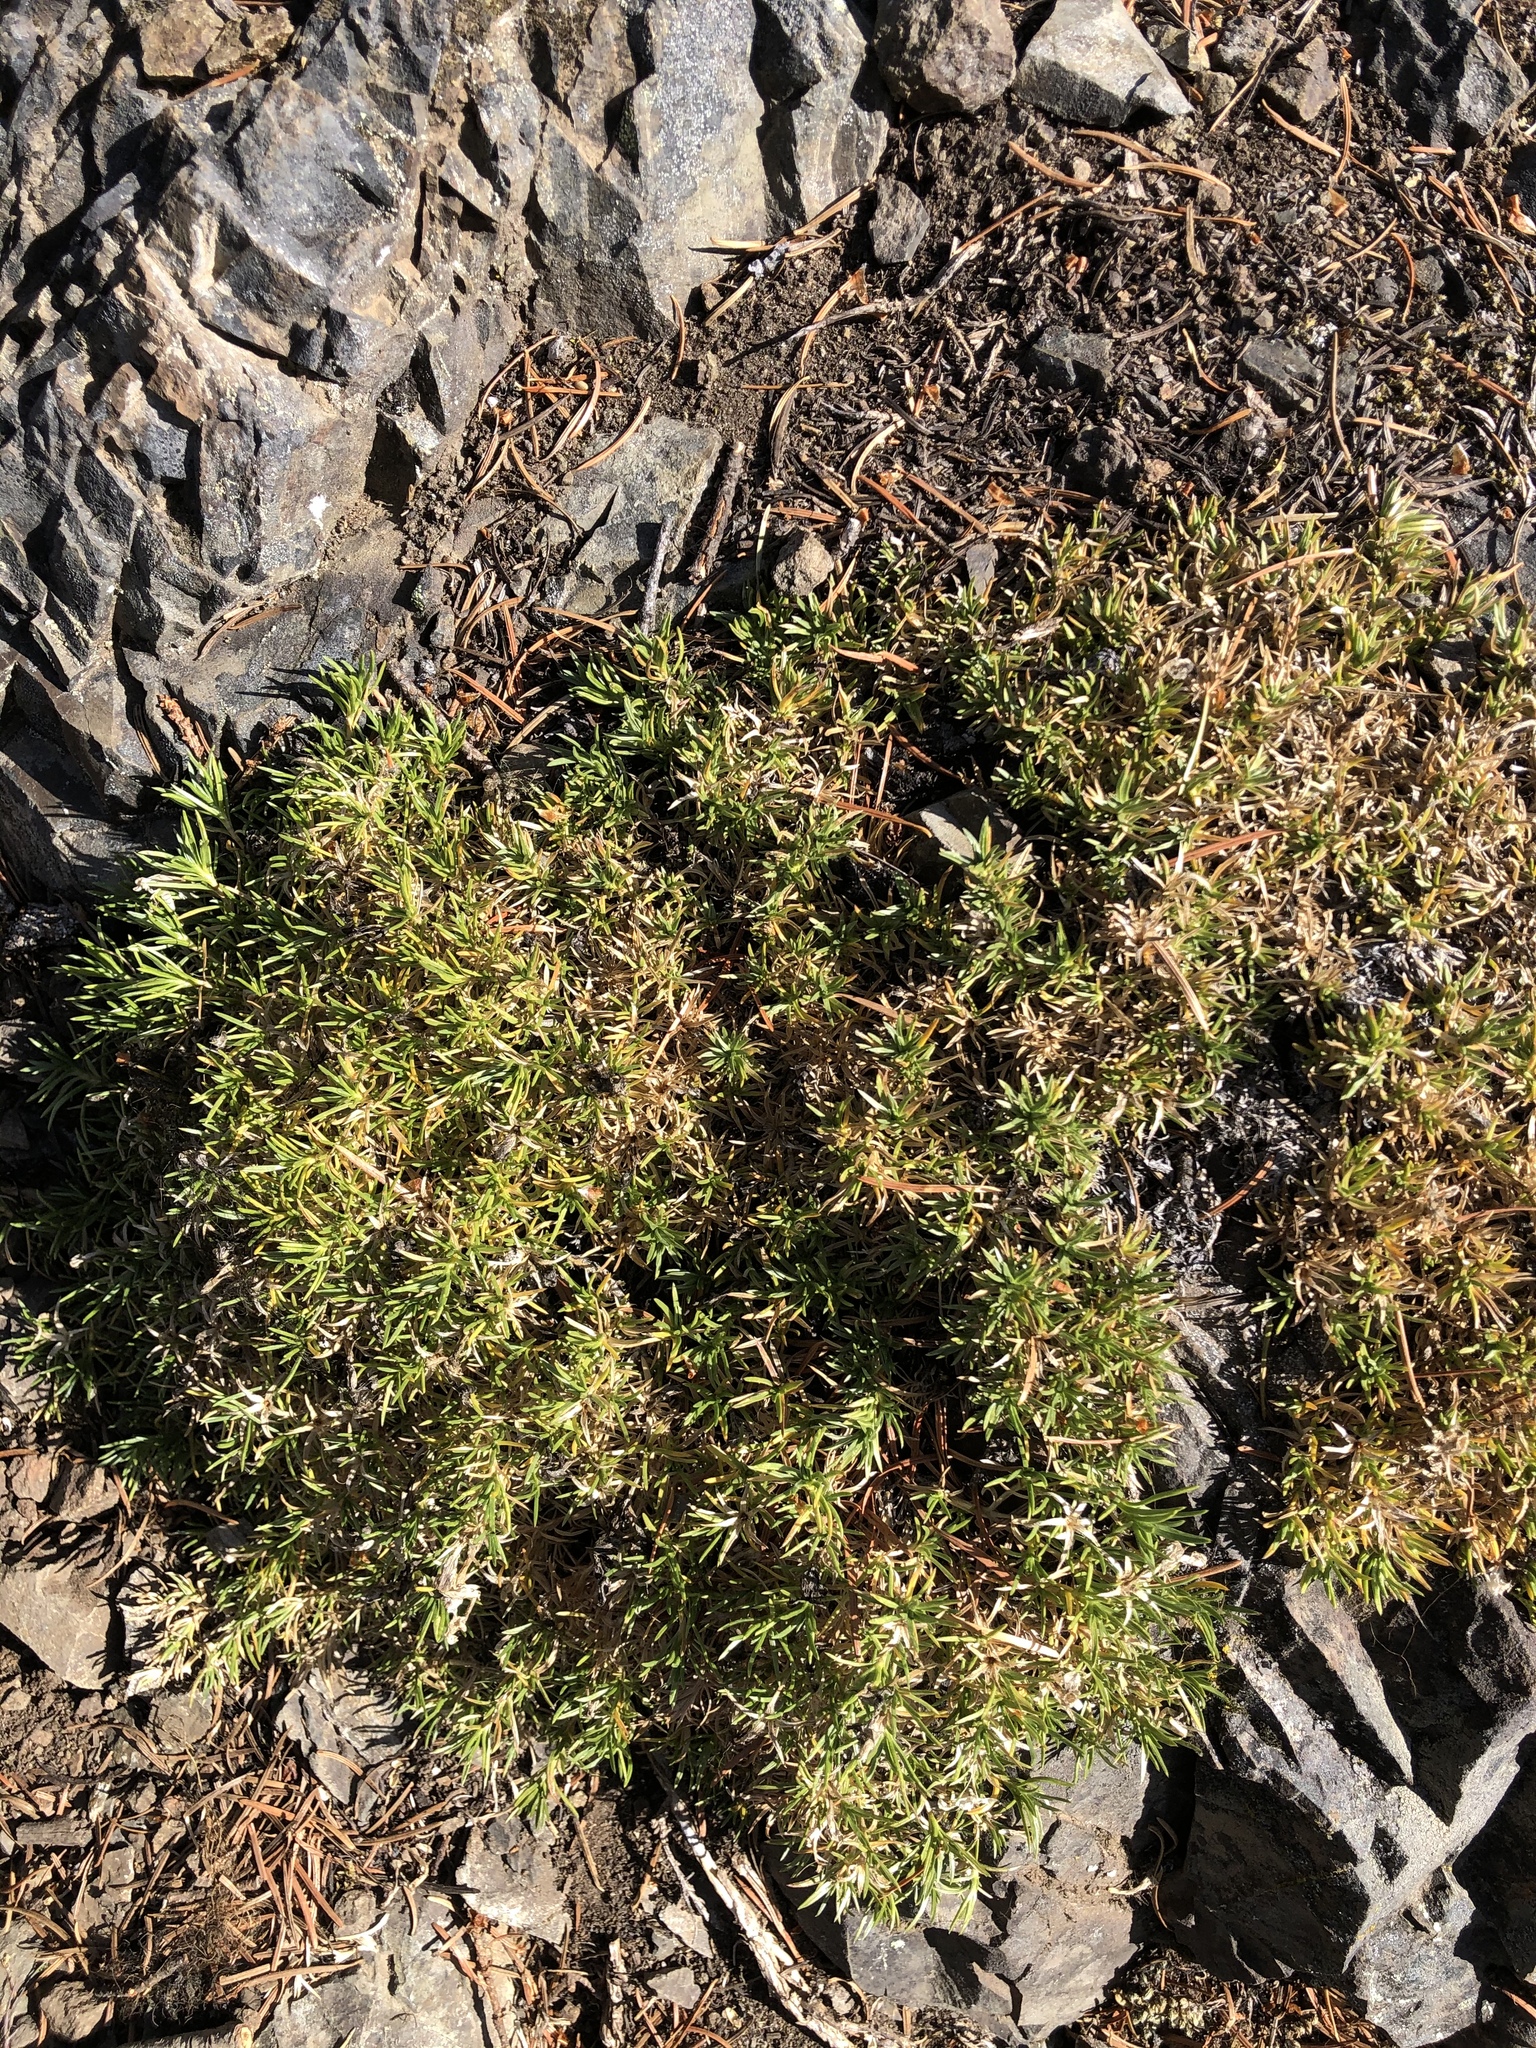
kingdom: Plantae
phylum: Tracheophyta
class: Magnoliopsida
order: Ericales
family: Polemoniaceae
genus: Phlox
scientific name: Phlox diffusa
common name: Mat phlox
